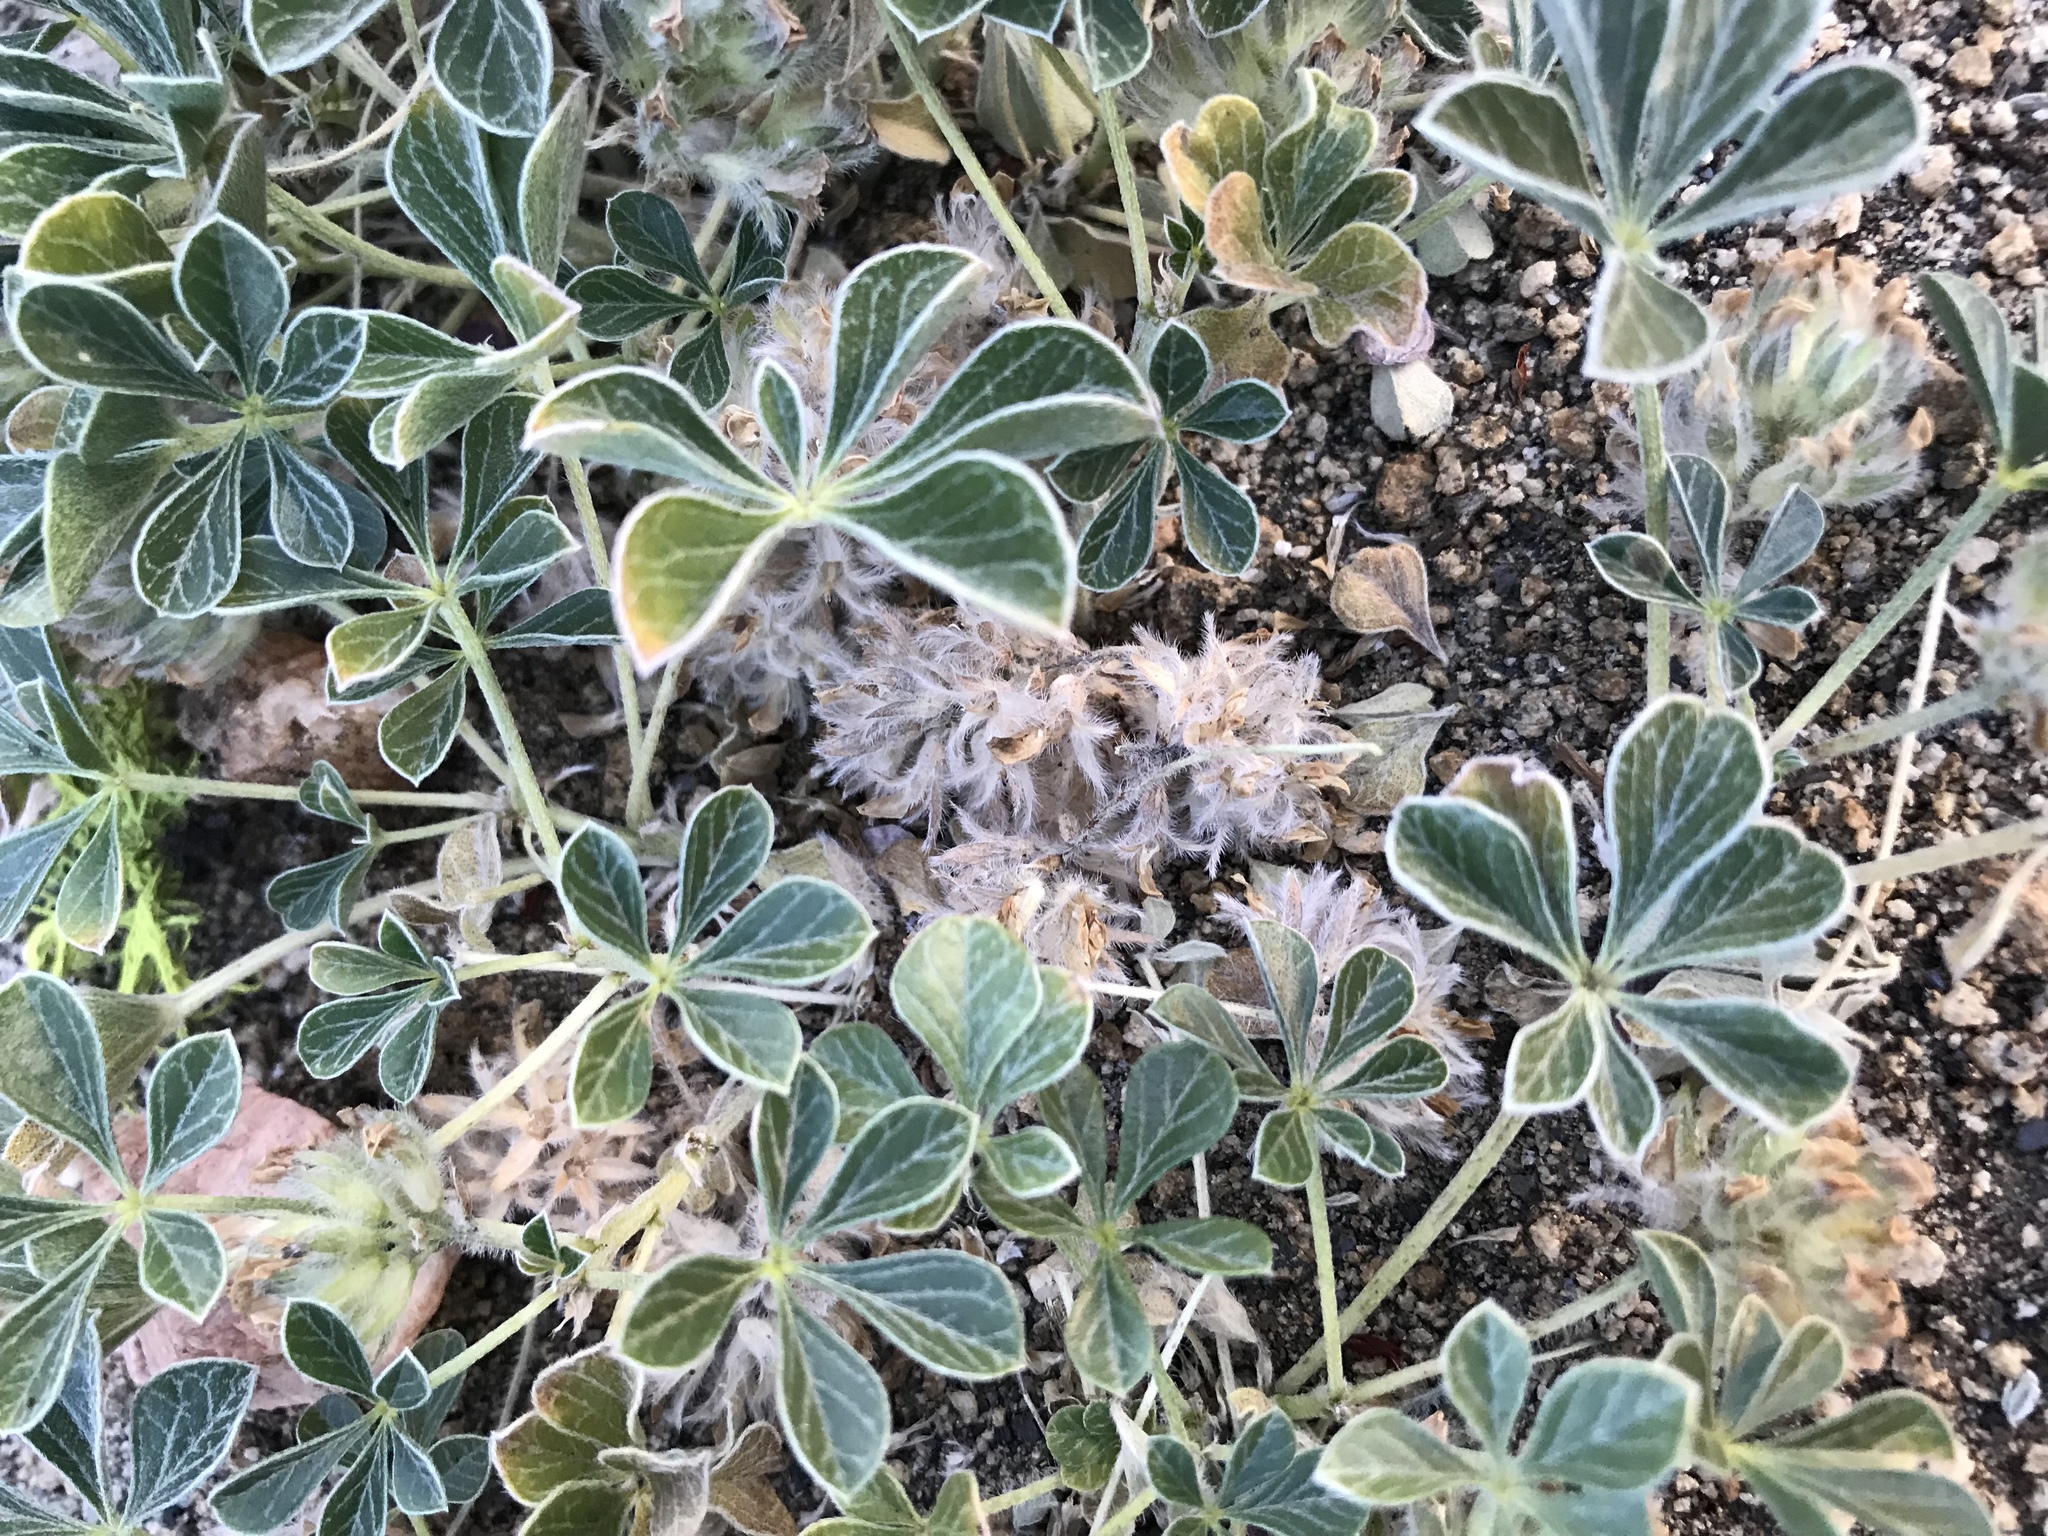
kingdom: Plantae
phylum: Tracheophyta
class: Magnoliopsida
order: Fabales
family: Fabaceae
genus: Pediomelum
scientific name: Pediomelum californicum
